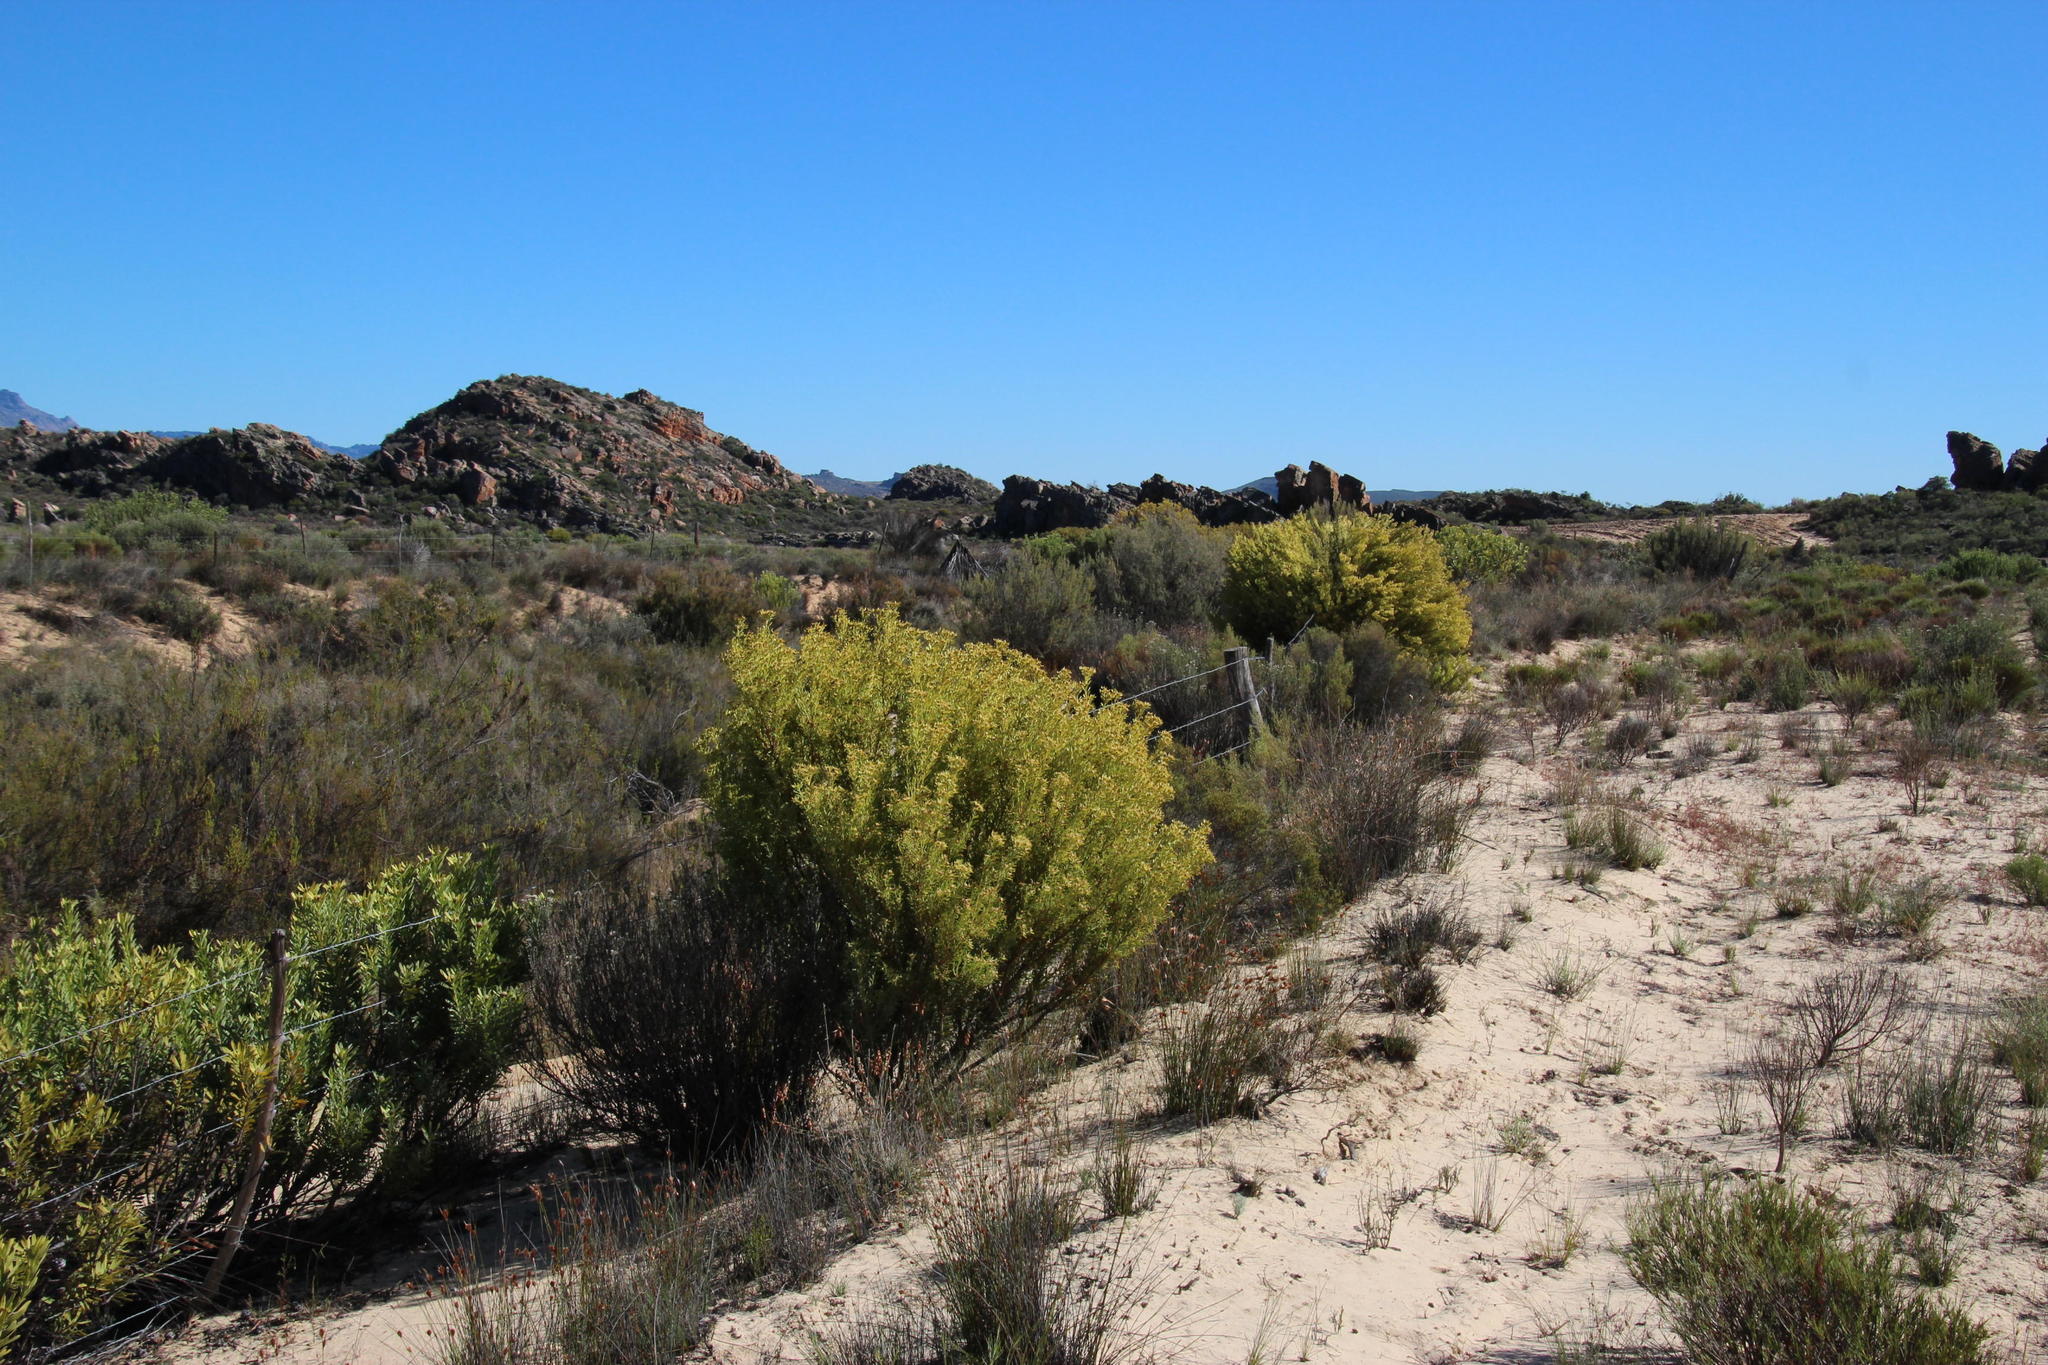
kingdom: Plantae
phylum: Tracheophyta
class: Magnoliopsida
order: Proteales
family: Proteaceae
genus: Leucadendron
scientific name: Leucadendron pubescens
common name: Grey conebush
